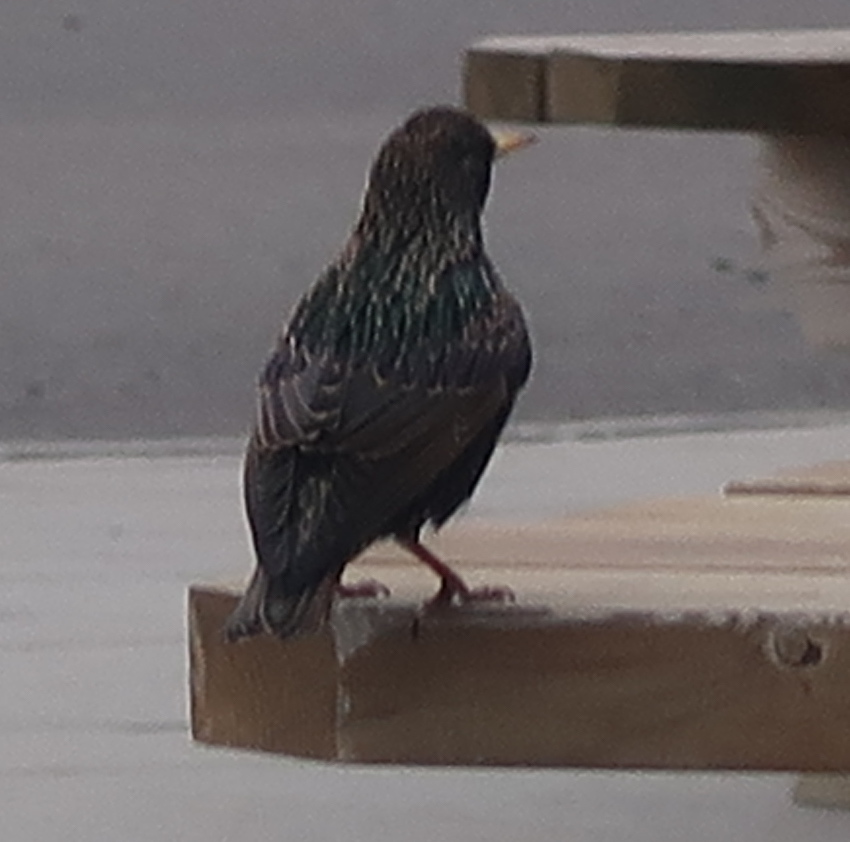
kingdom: Animalia
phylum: Chordata
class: Aves
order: Passeriformes
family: Sturnidae
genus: Sturnus
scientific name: Sturnus vulgaris
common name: Common starling
